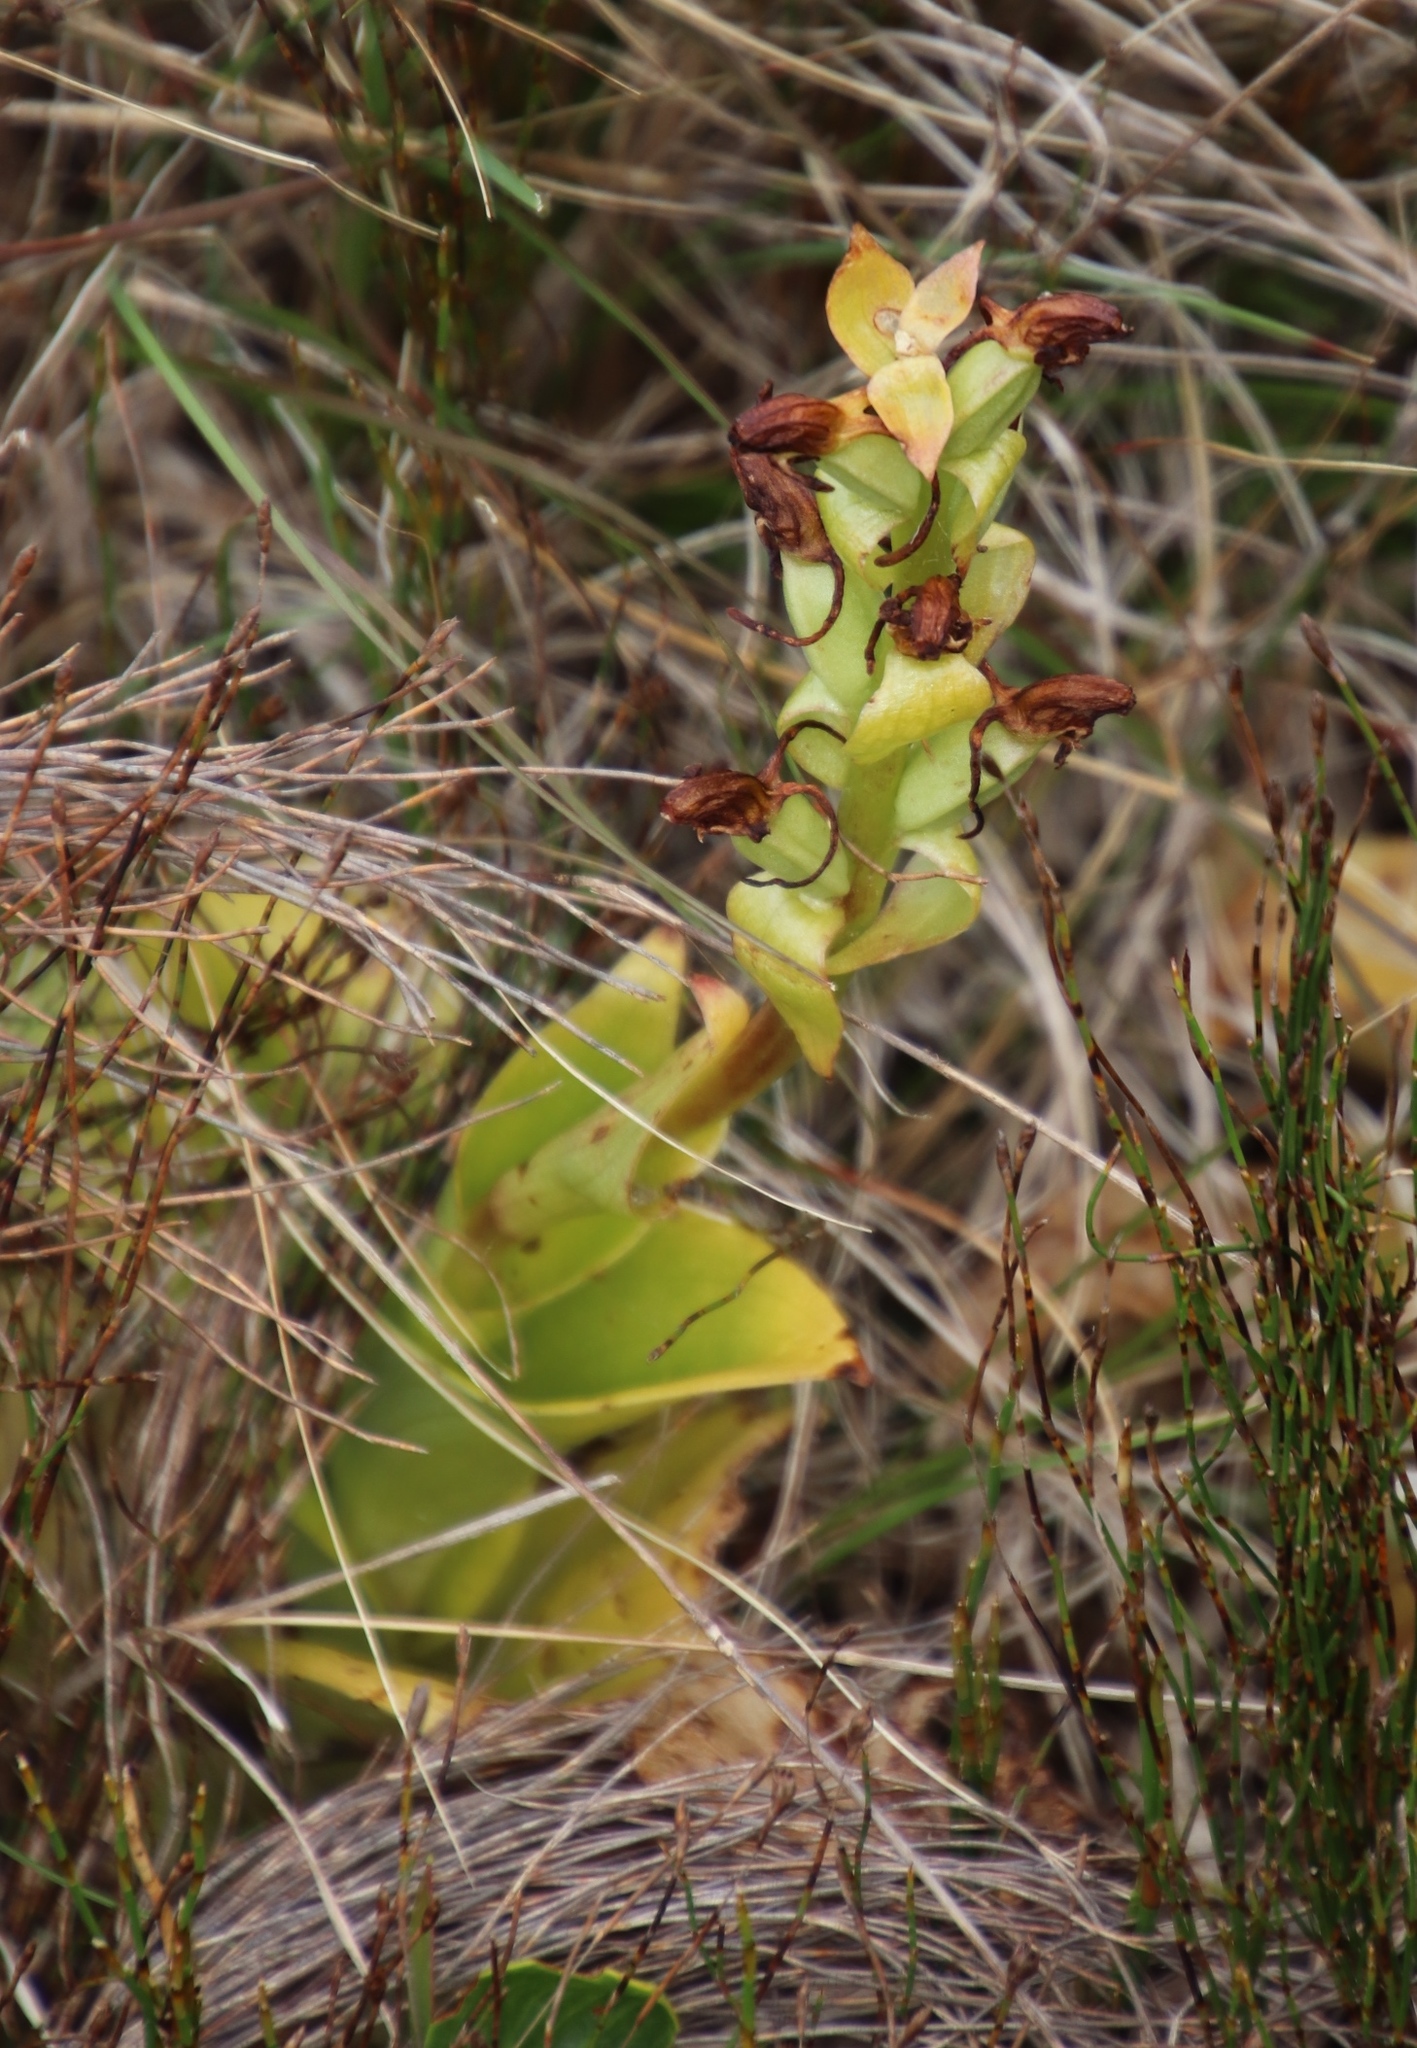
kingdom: Plantae
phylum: Tracheophyta
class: Liliopsida
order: Asparagales
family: Orchidaceae
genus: Satyrium
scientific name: Satyrium odorum
